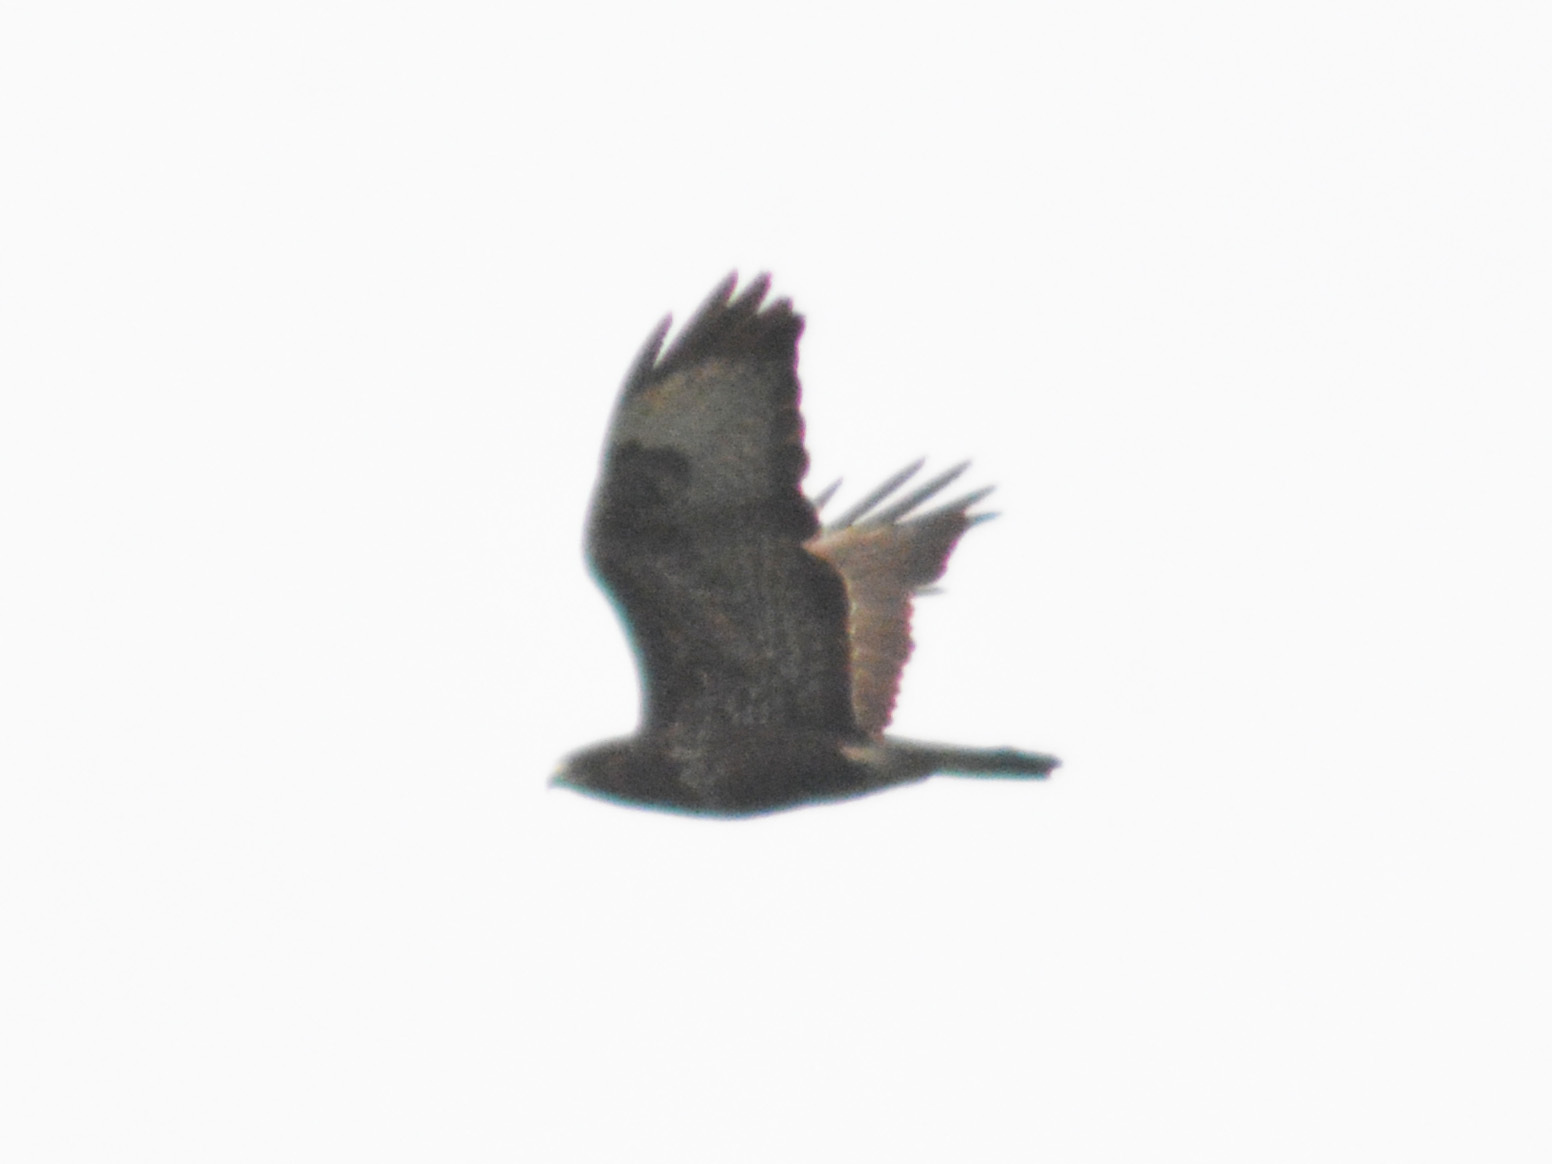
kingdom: Animalia
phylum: Chordata
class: Aves
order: Accipitriformes
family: Accipitridae
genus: Buteo
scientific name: Buteo buteo
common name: Common buzzard
